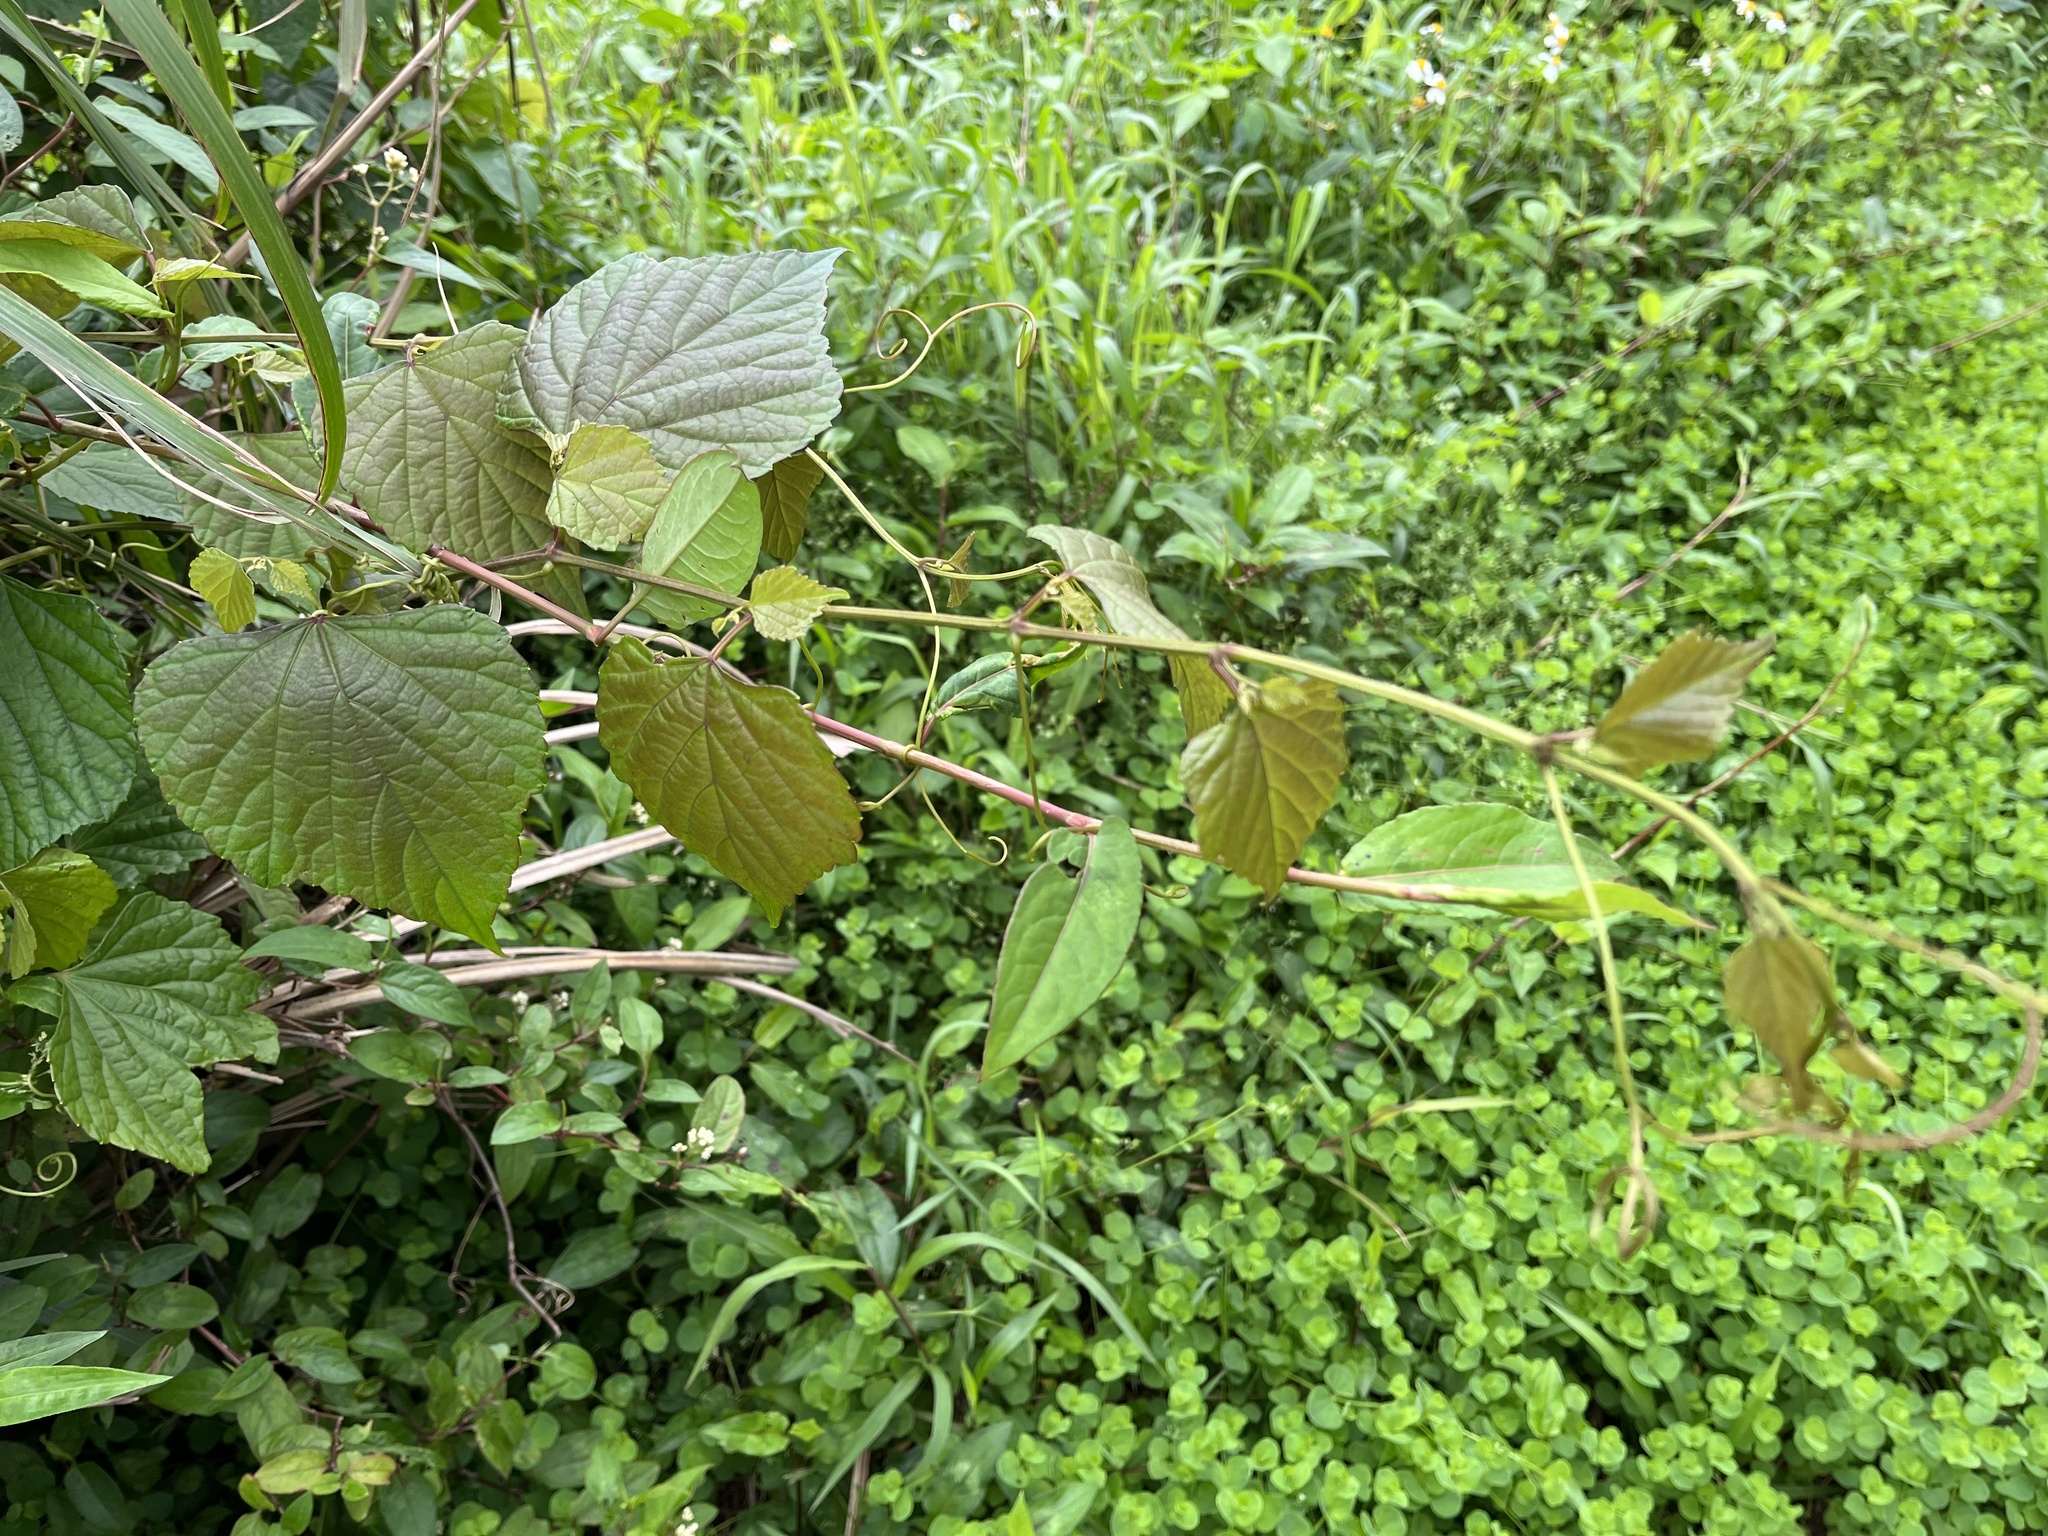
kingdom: Plantae
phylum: Tracheophyta
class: Magnoliopsida
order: Vitales
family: Vitaceae
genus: Ampelopsis
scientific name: Ampelopsis glandulosa
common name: Amur peppervine
